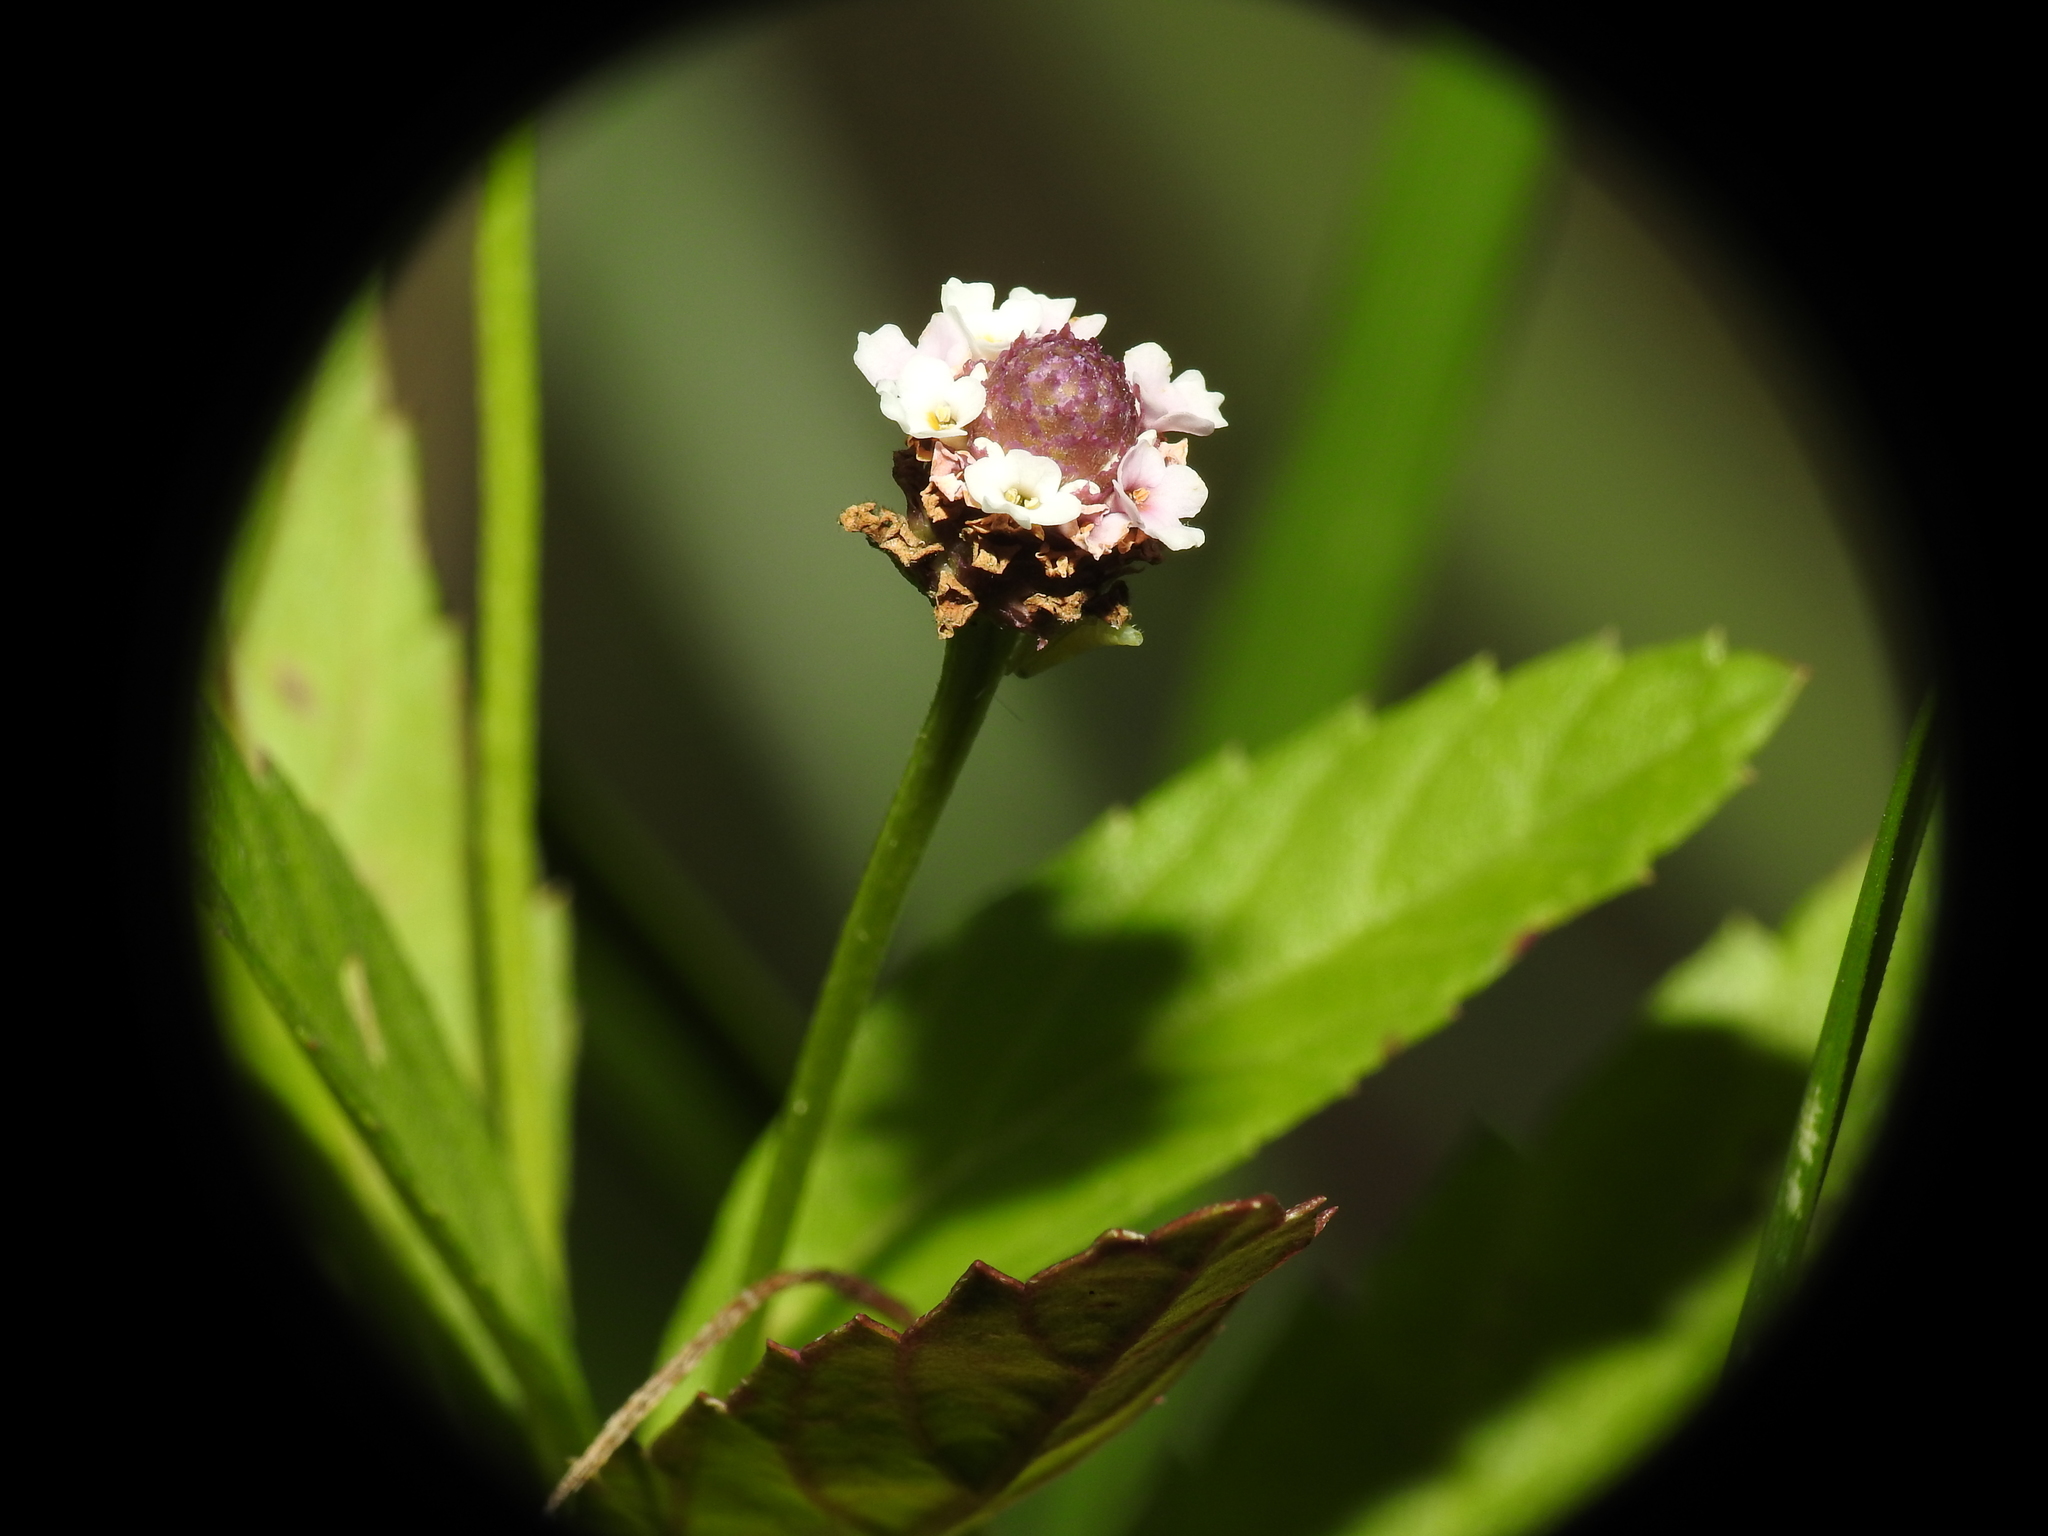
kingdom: Plantae
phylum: Tracheophyta
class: Magnoliopsida
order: Lamiales
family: Verbenaceae
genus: Phyla
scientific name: Phyla lanceolata
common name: Northern fogfruit
